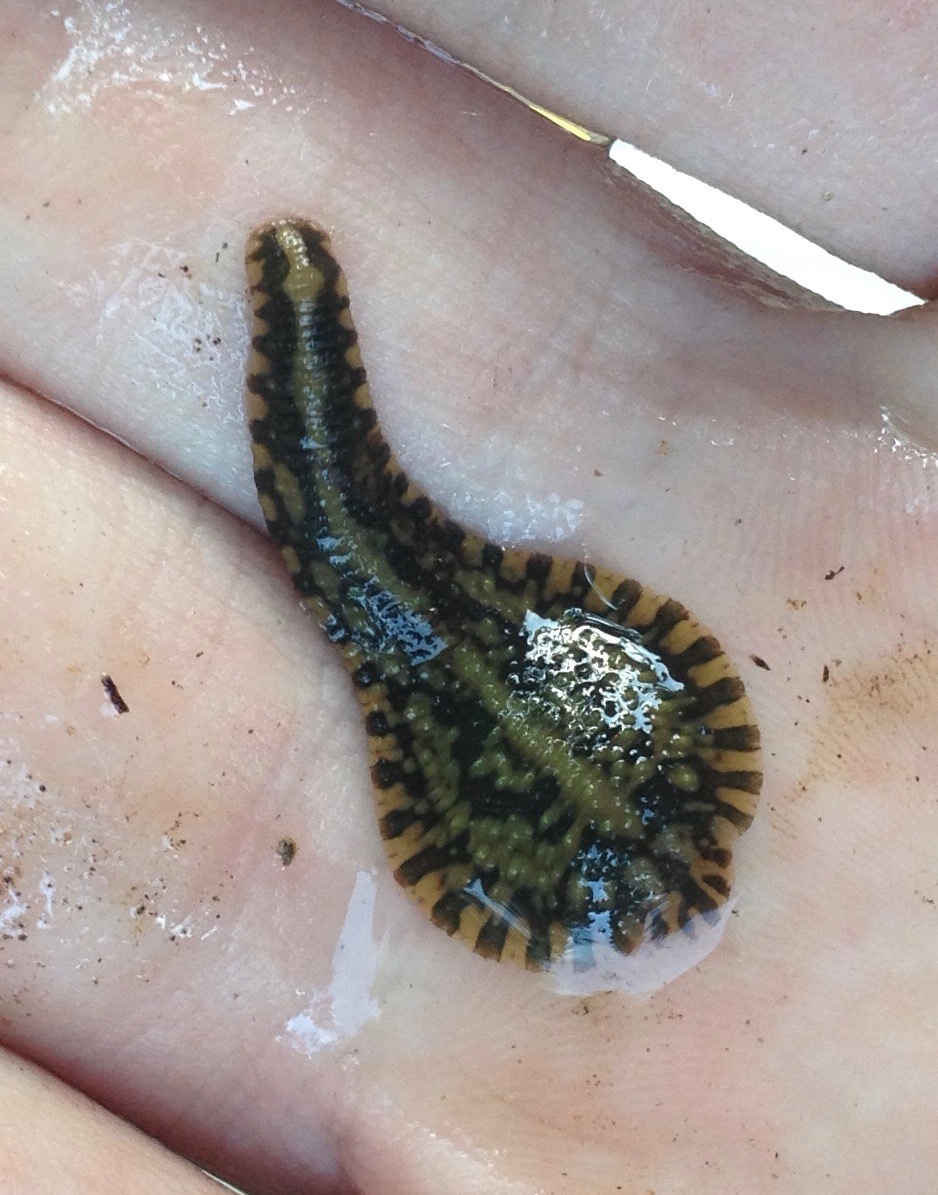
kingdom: Animalia
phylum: Annelida
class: Clitellata
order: Rhynchobdellida
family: Glossiphoniidae
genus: Placobdella
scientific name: Placobdella parasitica
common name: Smooth turtle leech
